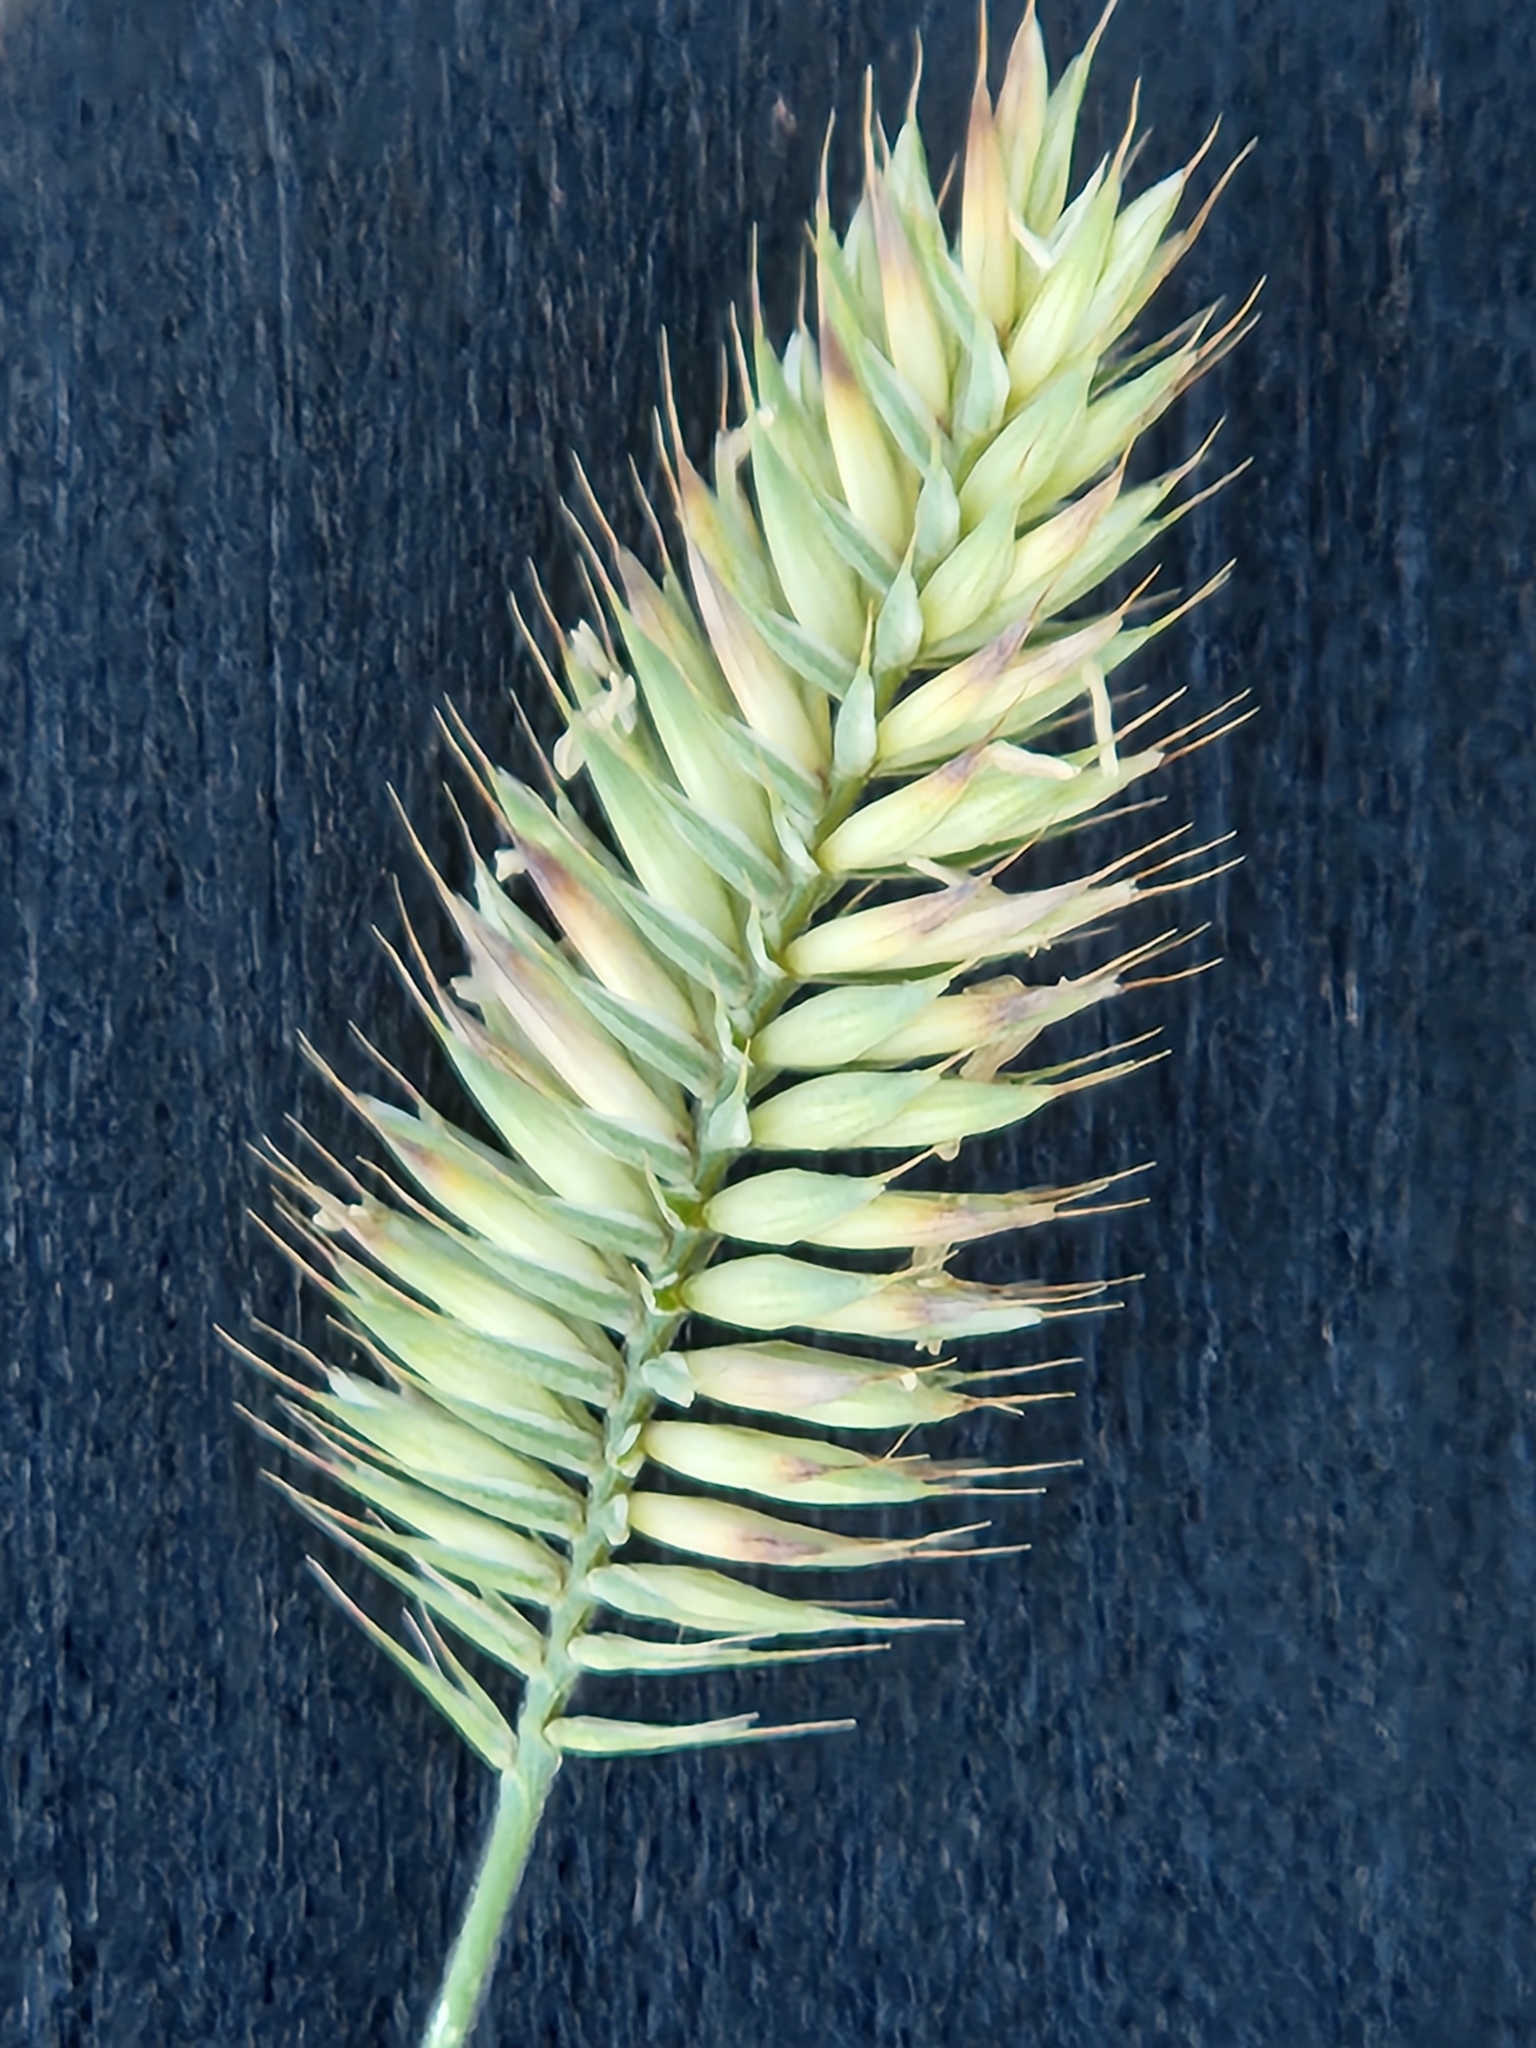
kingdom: Plantae
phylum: Tracheophyta
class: Liliopsida
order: Poales
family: Poaceae
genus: Agropyron
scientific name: Agropyron cristatum
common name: Crested wheatgrass
